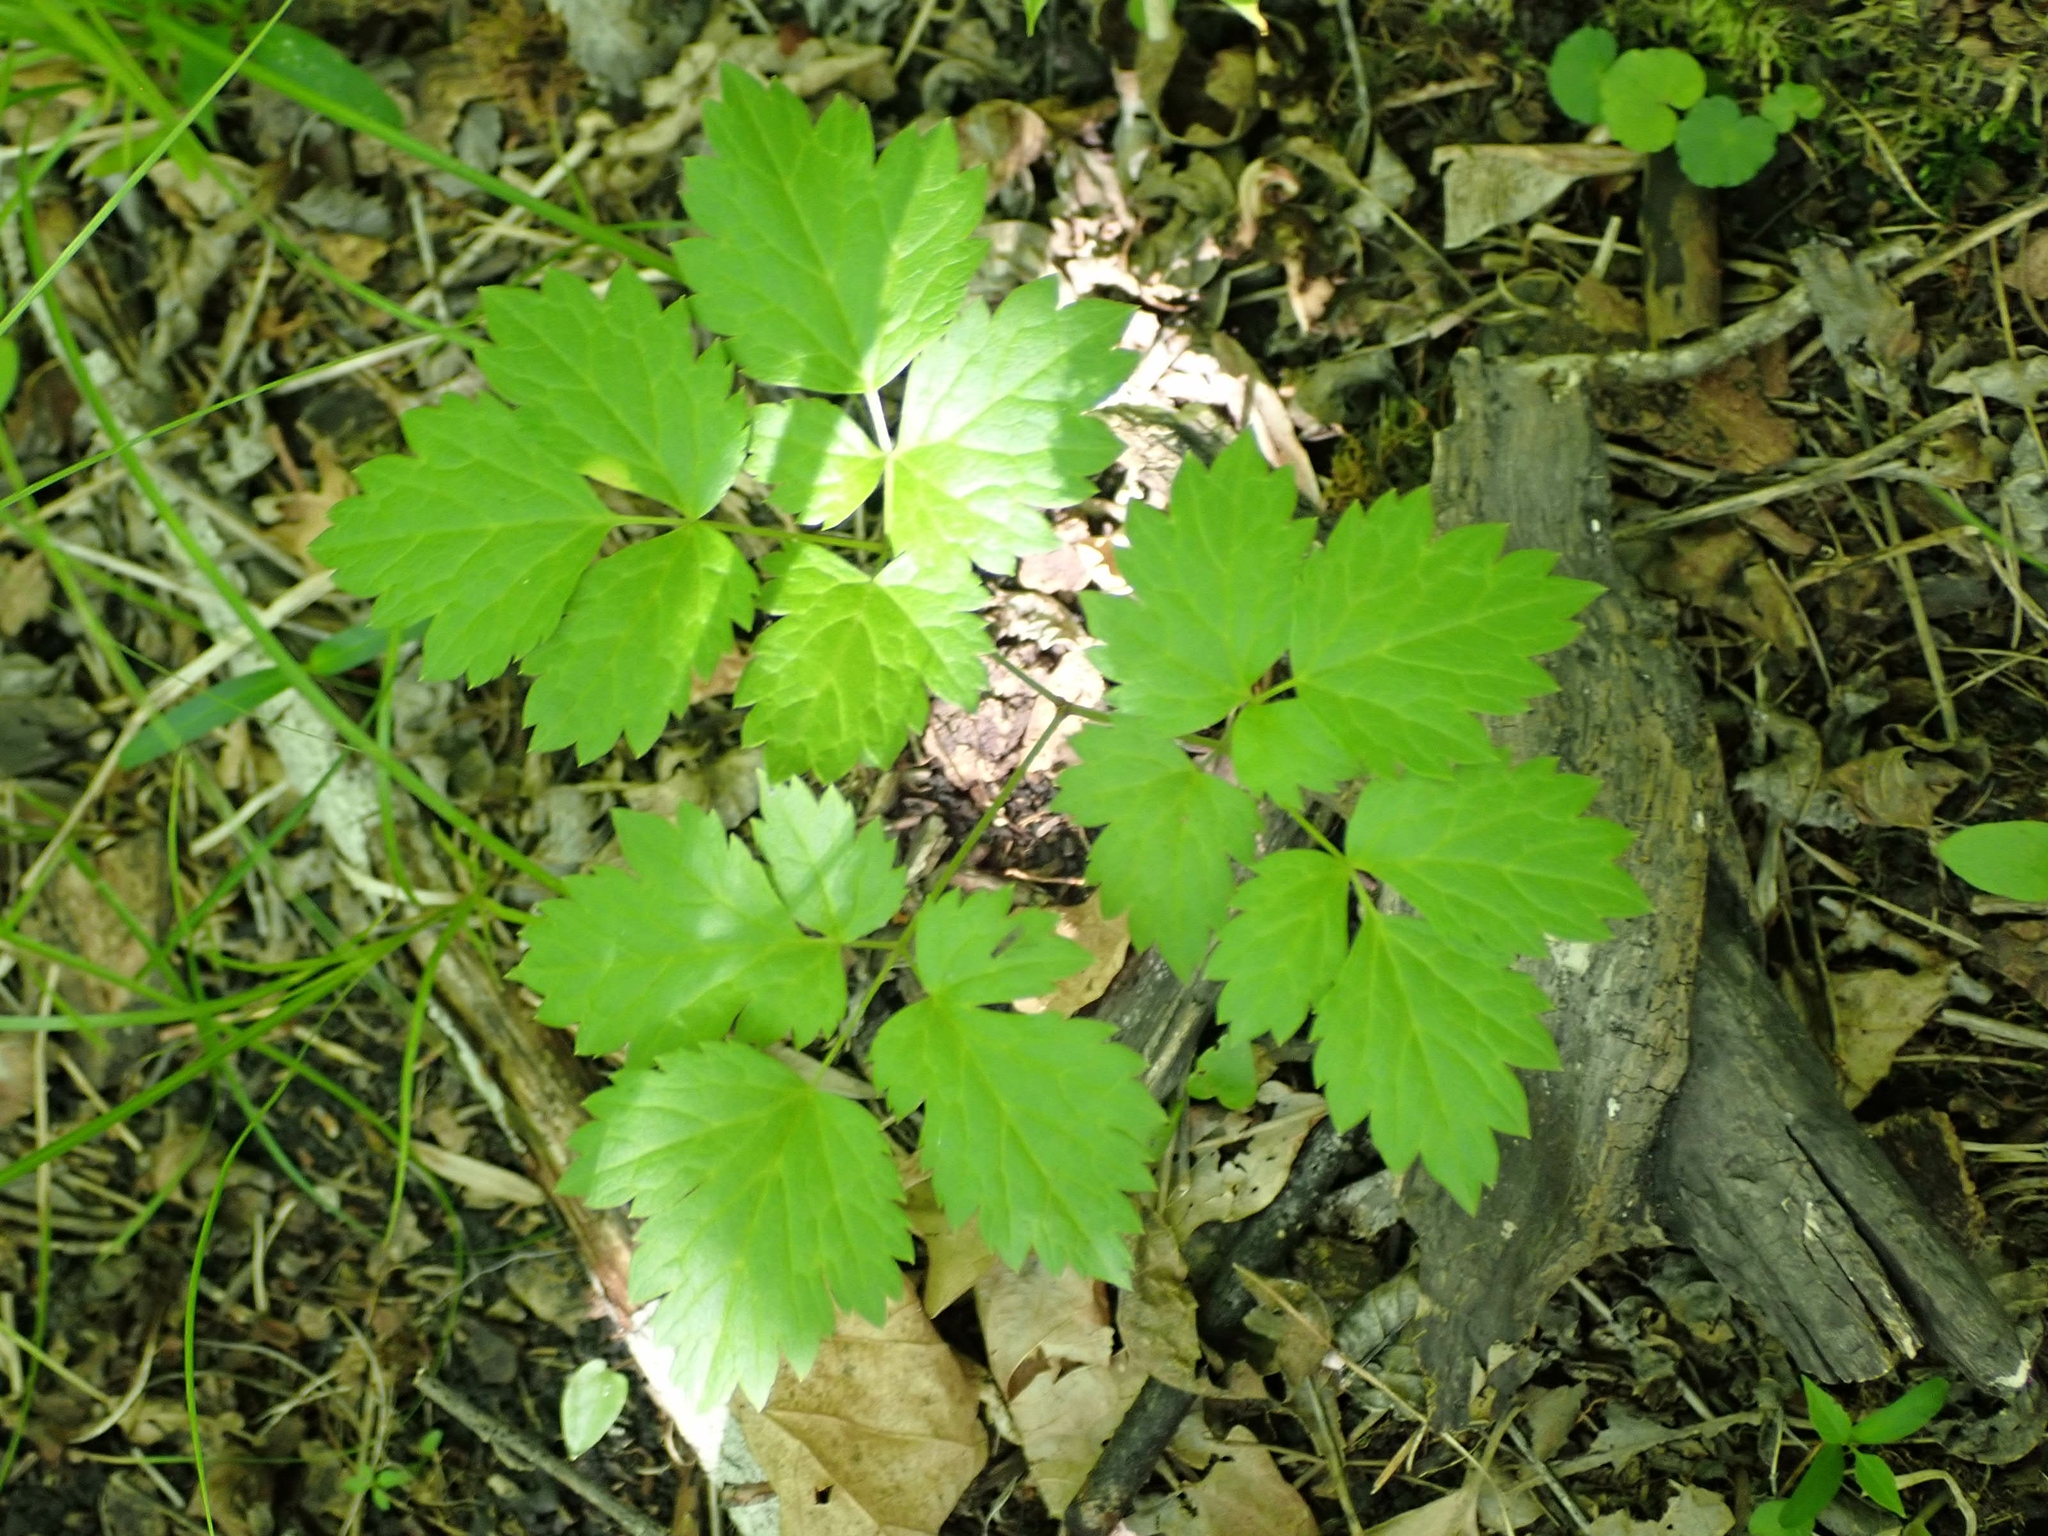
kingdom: Plantae
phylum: Tracheophyta
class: Magnoliopsida
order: Ranunculales
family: Ranunculaceae
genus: Actaea
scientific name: Actaea rubra
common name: Red baneberry
